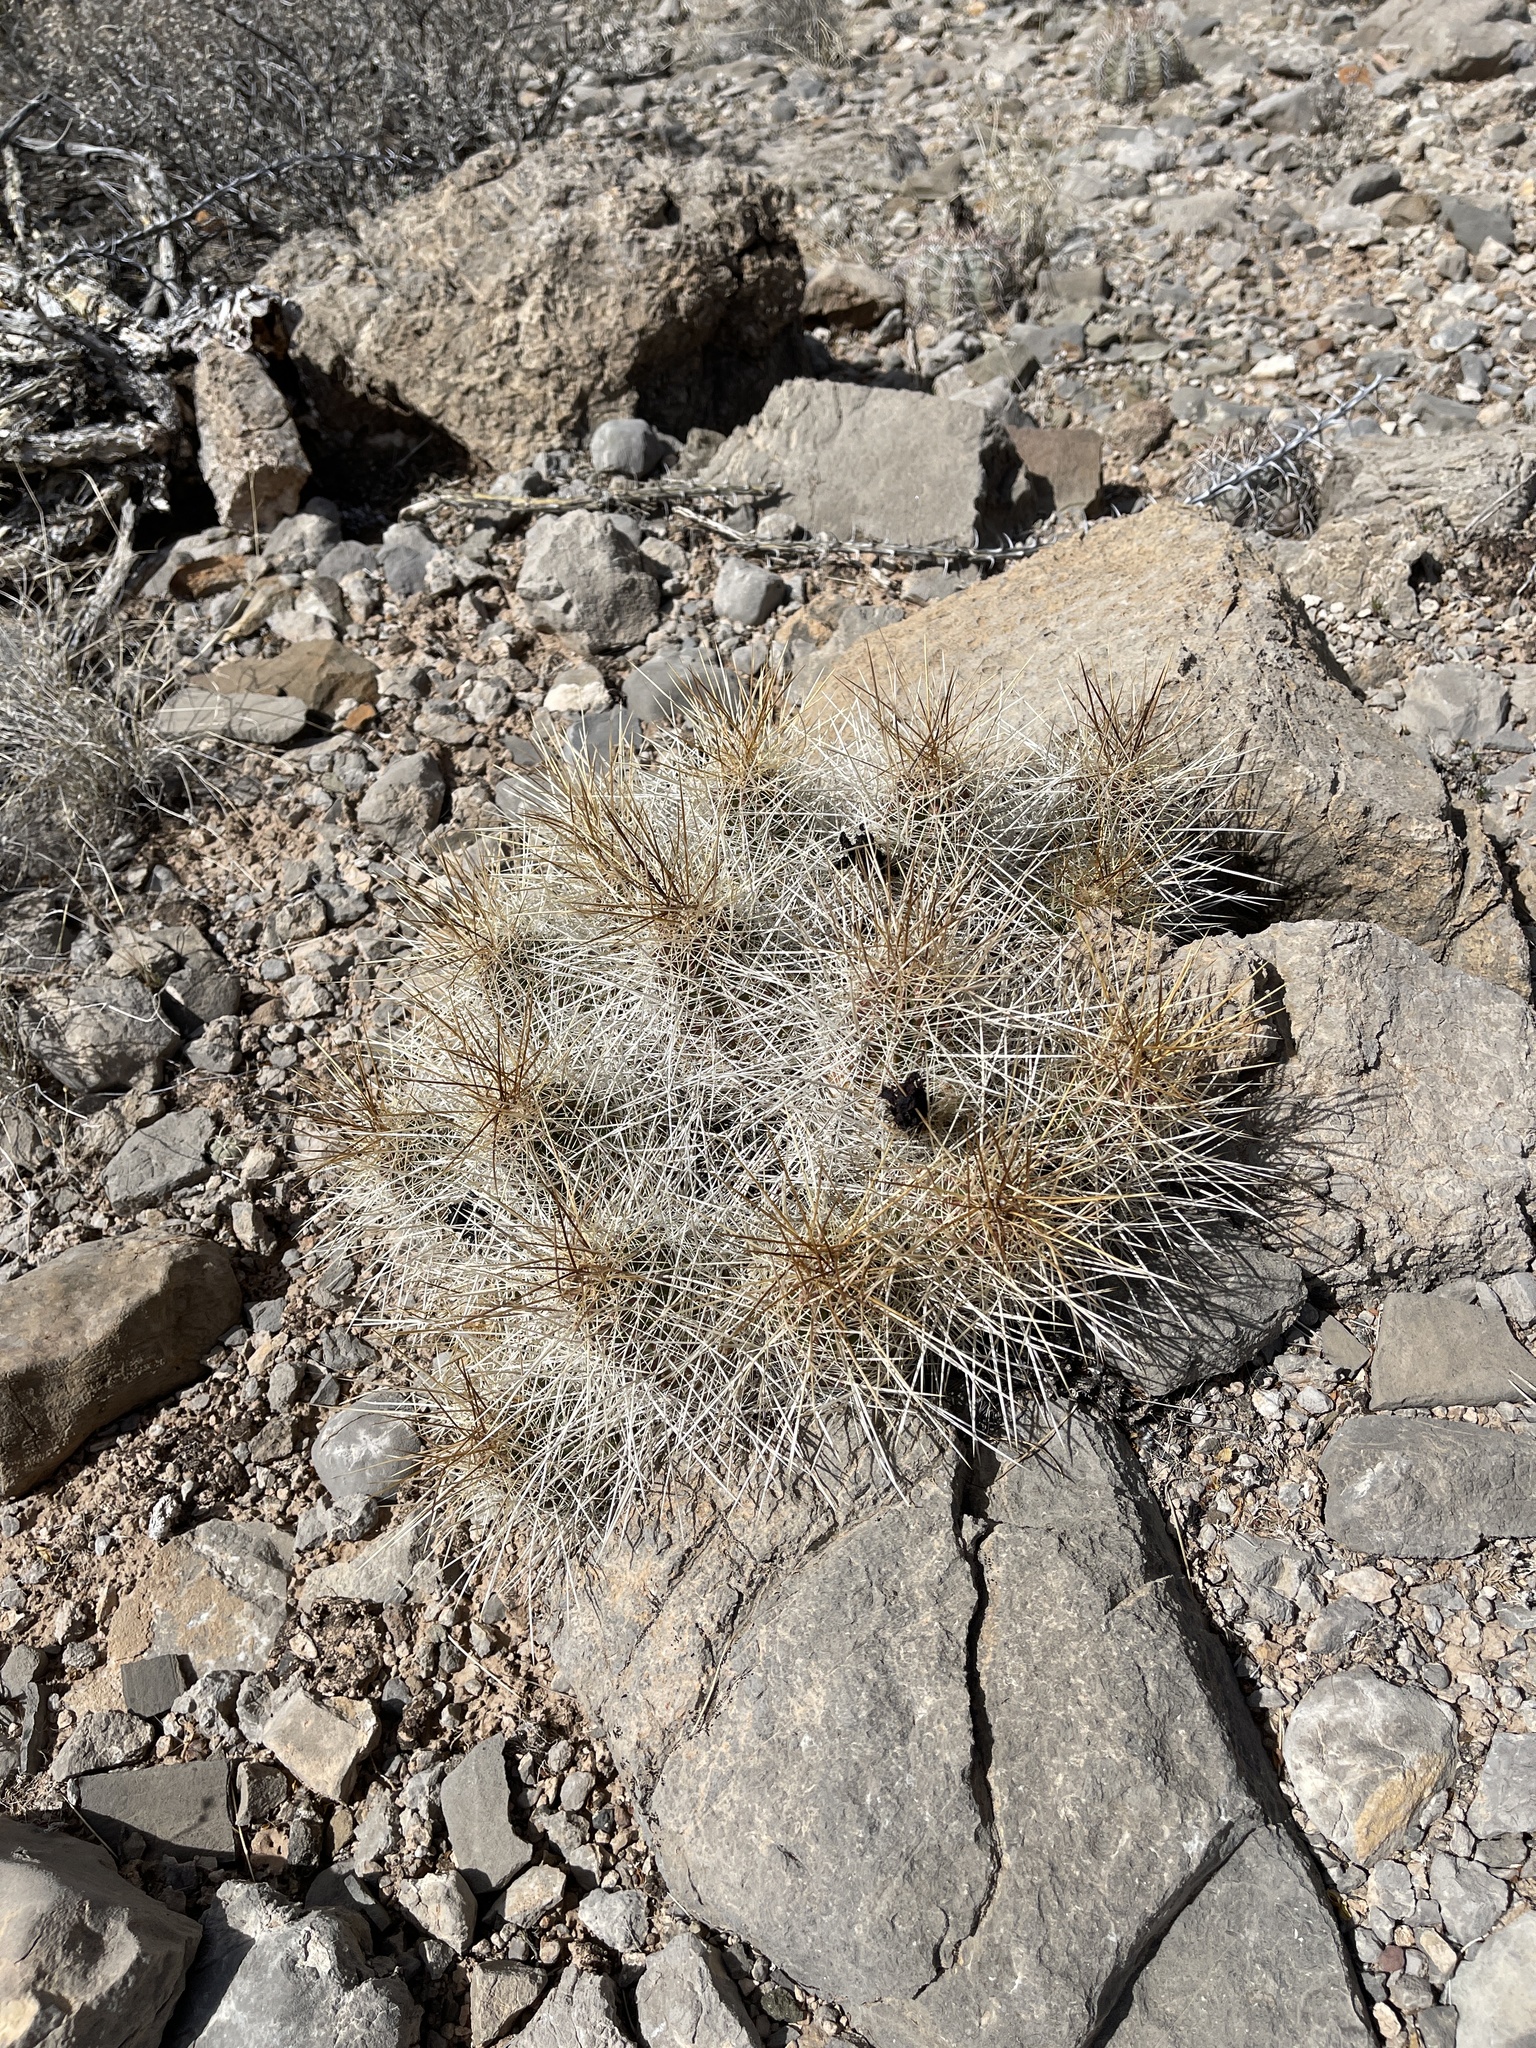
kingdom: Plantae
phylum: Tracheophyta
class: Magnoliopsida
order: Caryophyllales
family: Cactaceae
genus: Echinocereus
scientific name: Echinocereus stramineus
